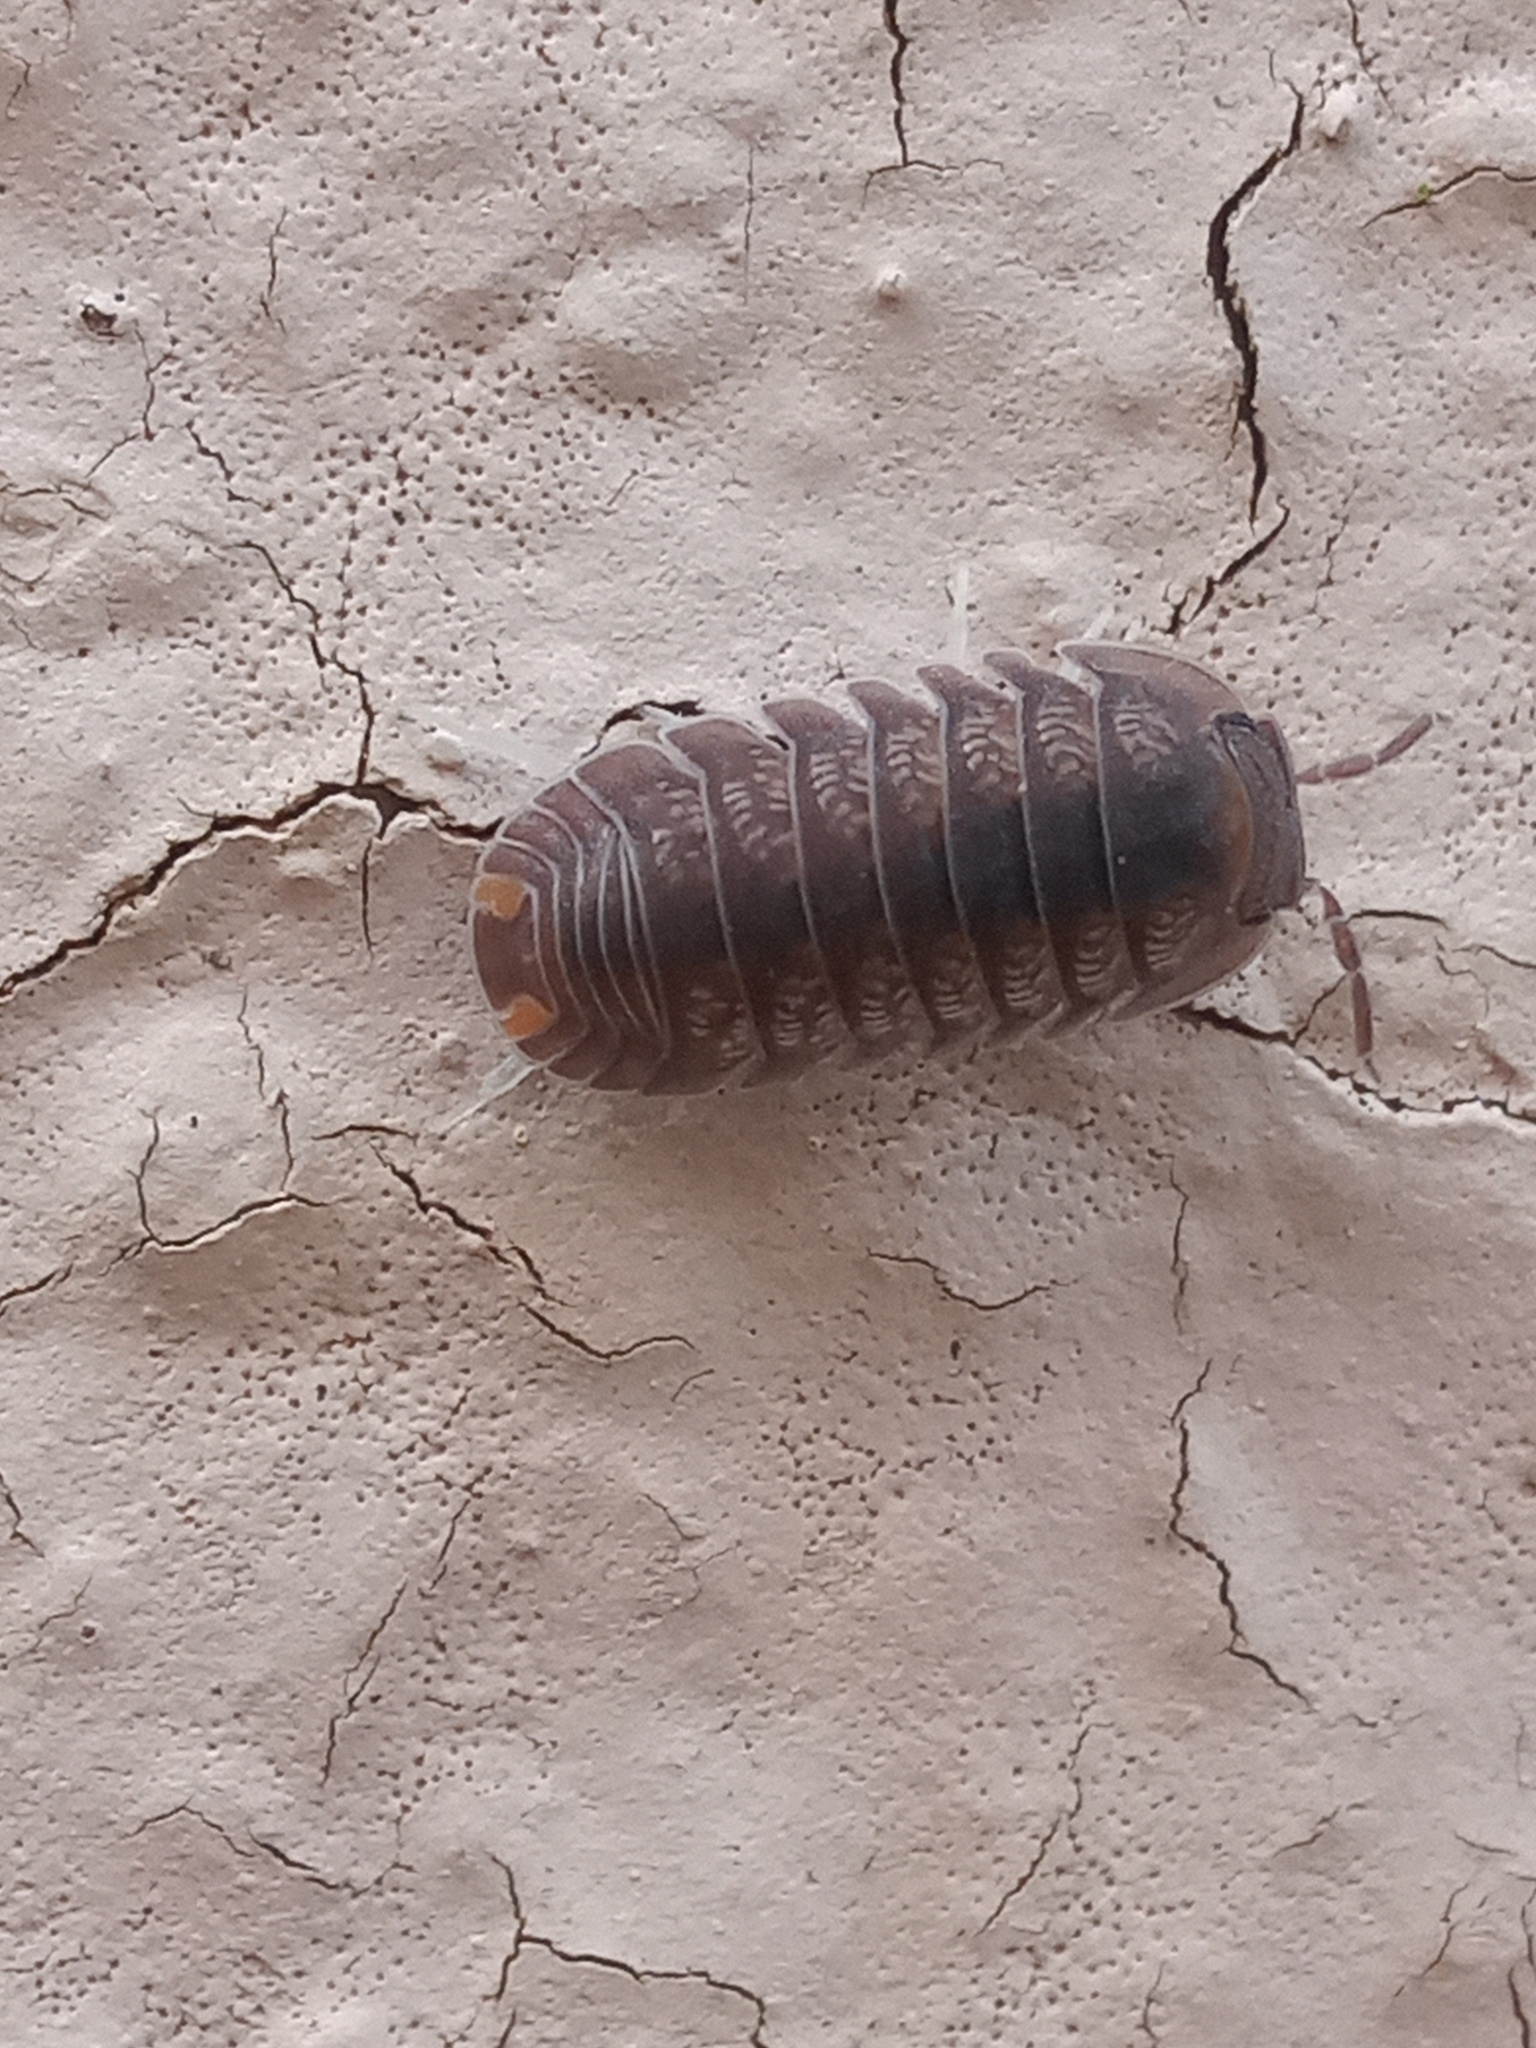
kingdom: Animalia
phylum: Arthropoda
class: Malacostraca
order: Isopoda
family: Armadillidae
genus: Cubaris
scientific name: Cubaris murina
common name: Pillbug
